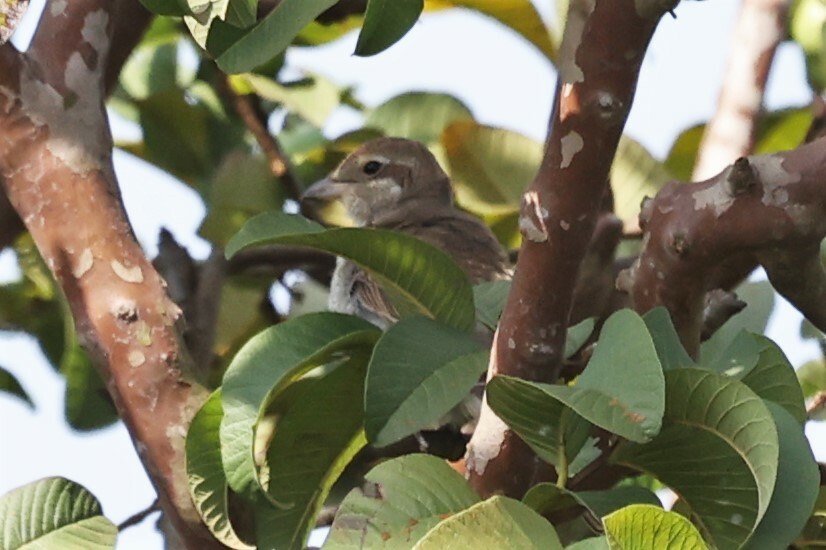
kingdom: Animalia
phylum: Chordata
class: Aves
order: Passeriformes
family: Laniidae
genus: Lanius
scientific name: Lanius collurio
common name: Red-backed shrike
